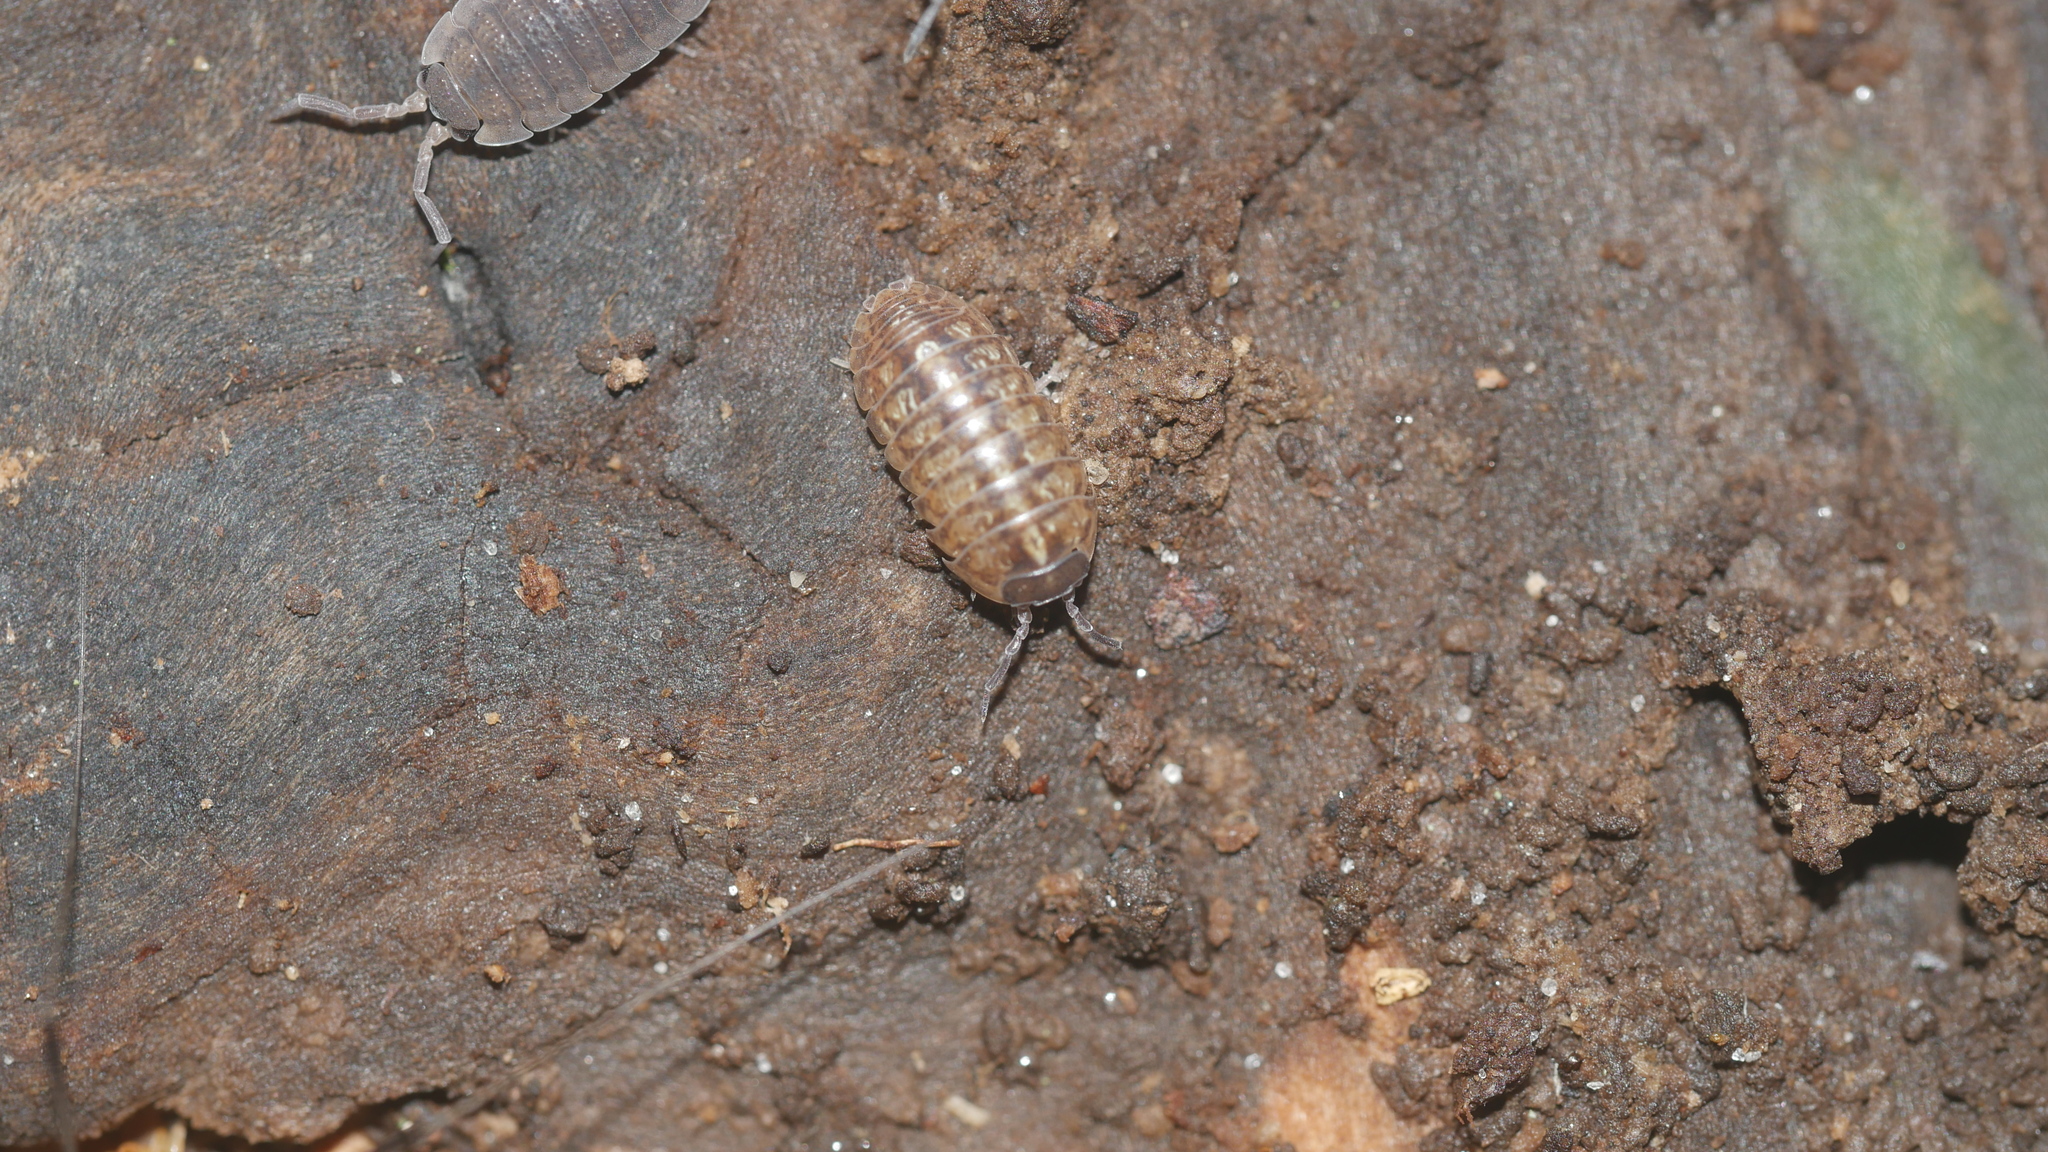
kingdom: Animalia
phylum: Arthropoda
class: Malacostraca
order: Isopoda
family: Armadillidiidae
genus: Armadillidium
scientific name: Armadillidium vulgare
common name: Common pill woodlouse
